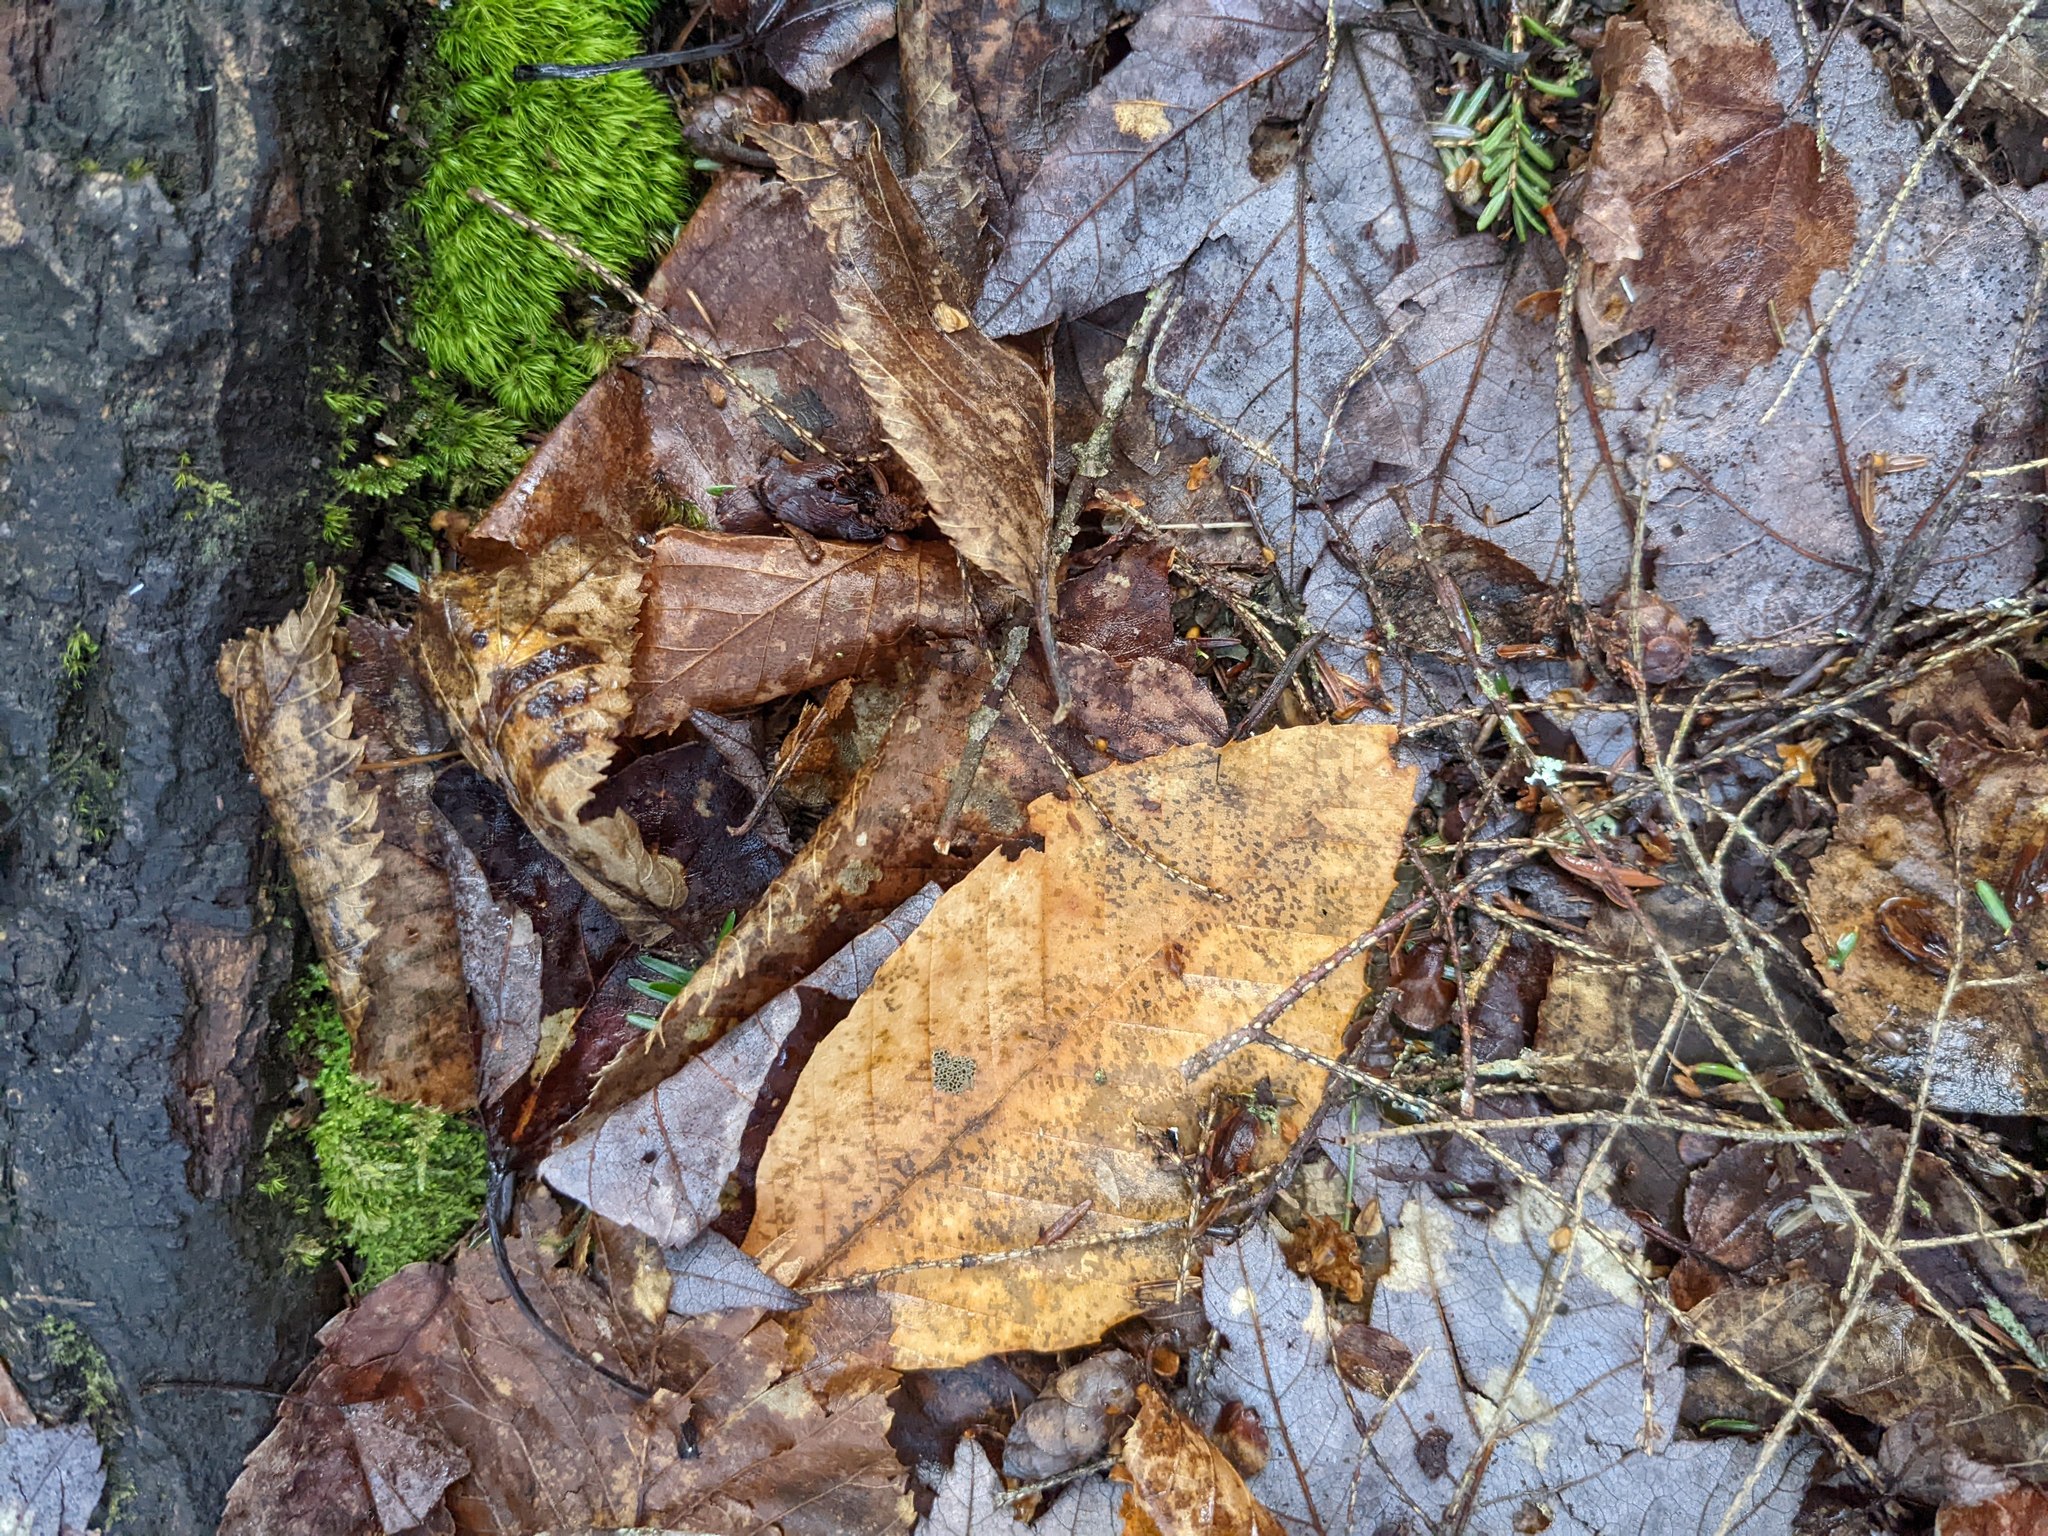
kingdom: Plantae
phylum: Tracheophyta
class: Magnoliopsida
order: Fagales
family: Fagaceae
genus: Fagus
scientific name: Fagus grandifolia
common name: American beech
